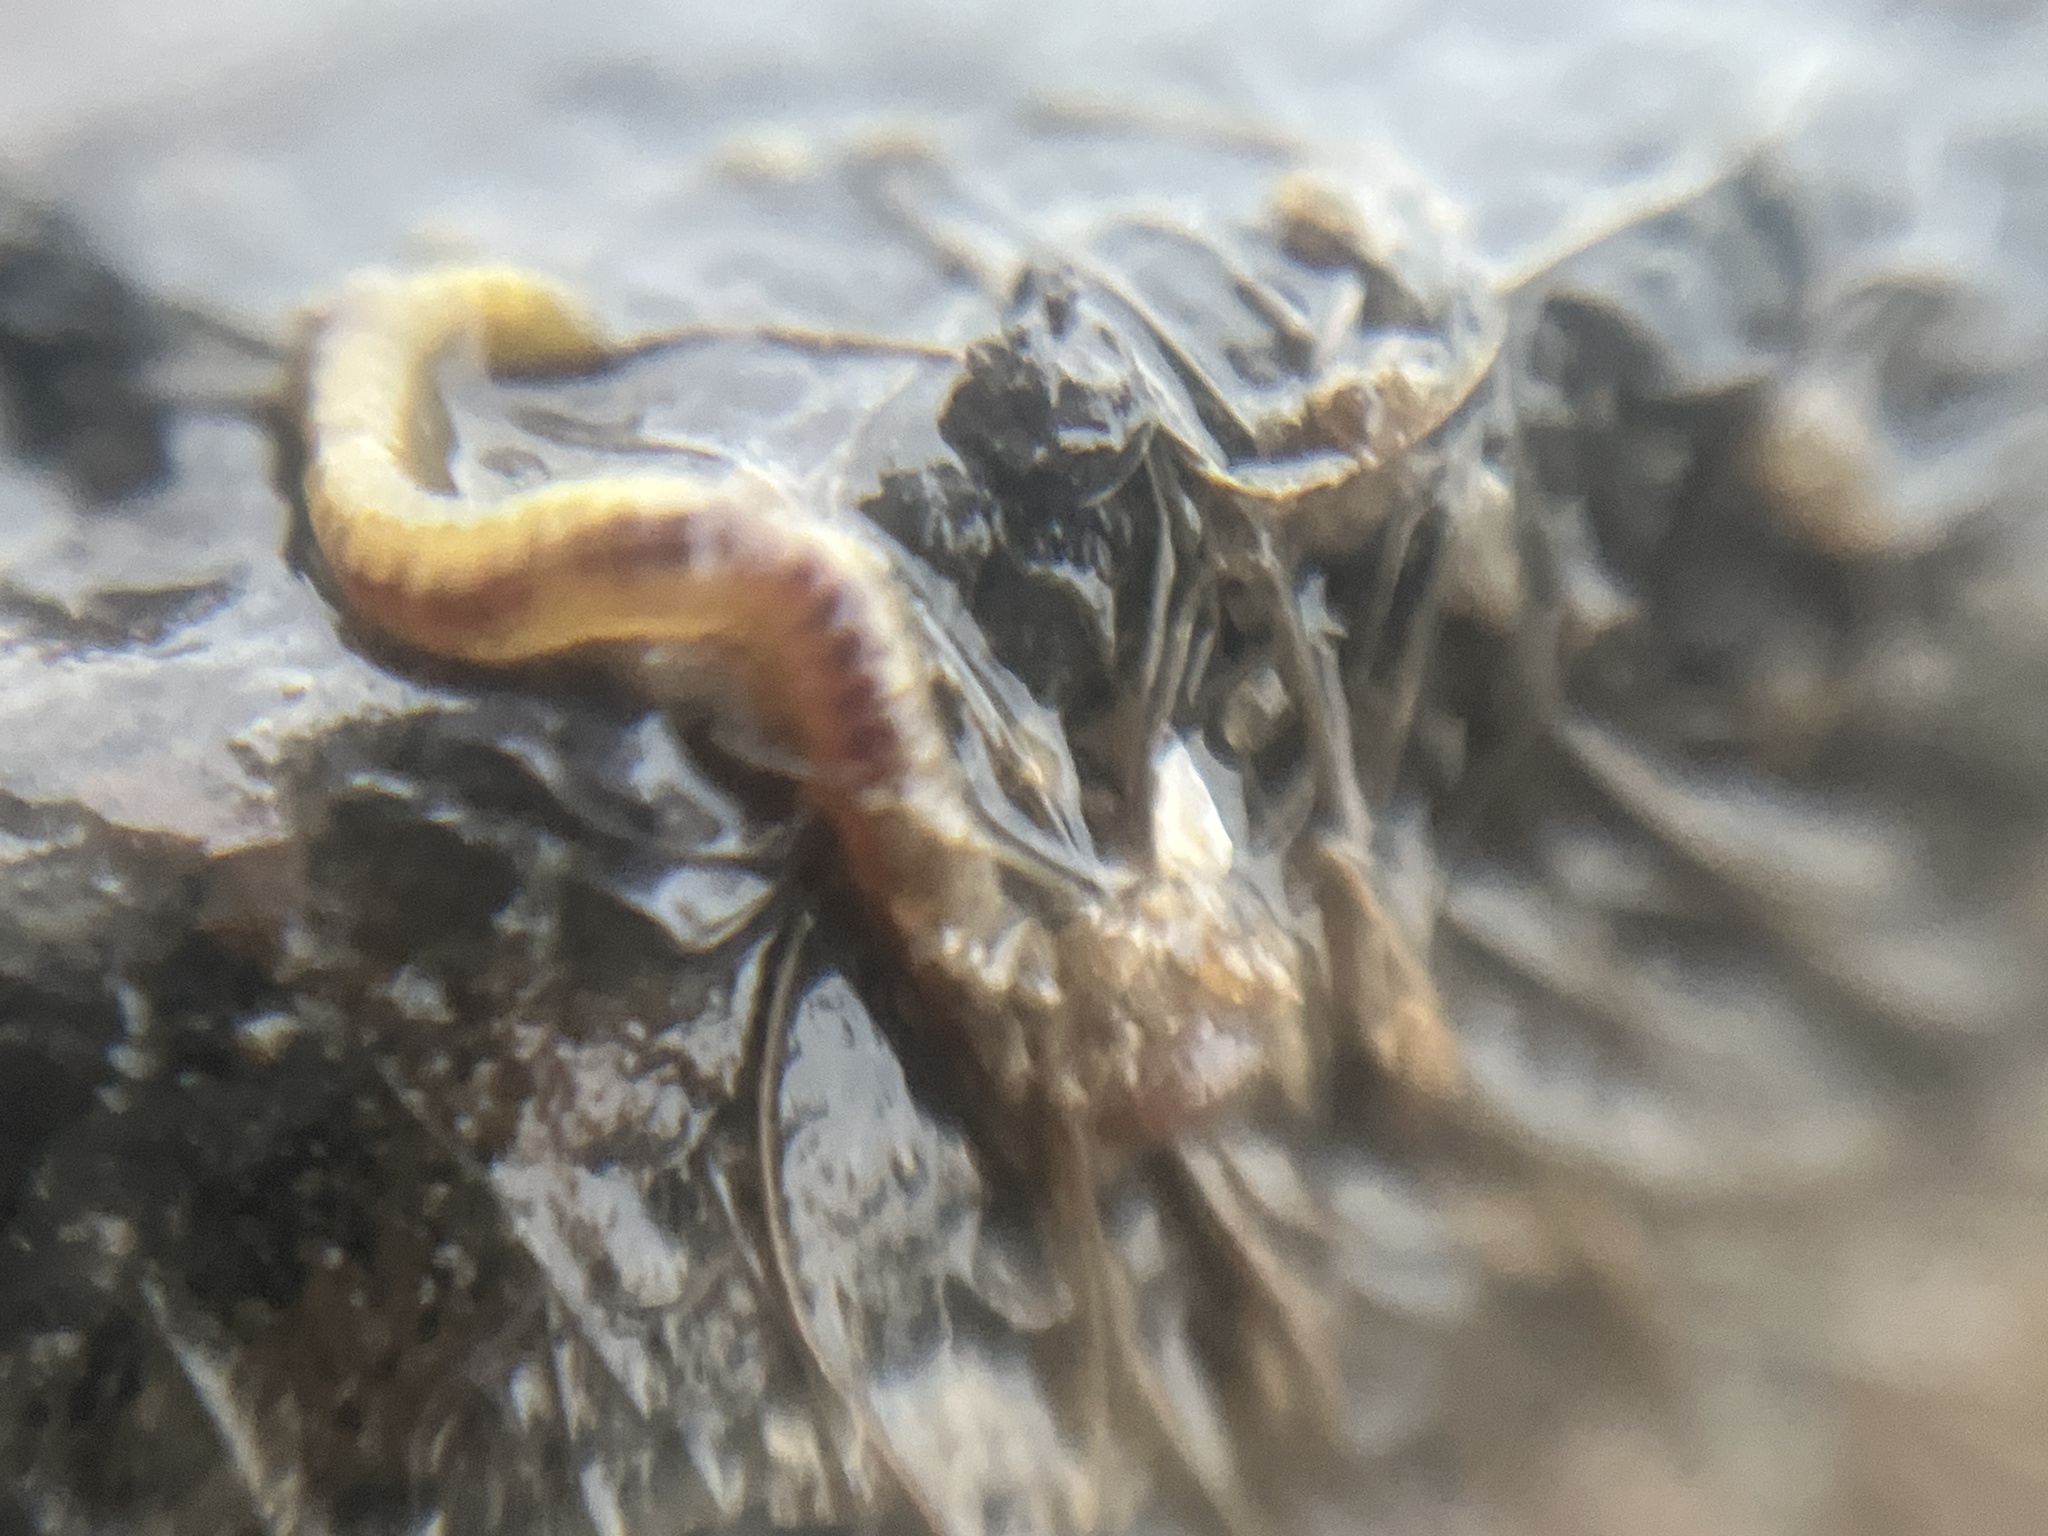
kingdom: Animalia
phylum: Annelida
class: Polychaeta
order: Phyllodocida
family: Nereididae
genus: Hediste
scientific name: Hediste diversicolor
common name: Estuary ragworm
